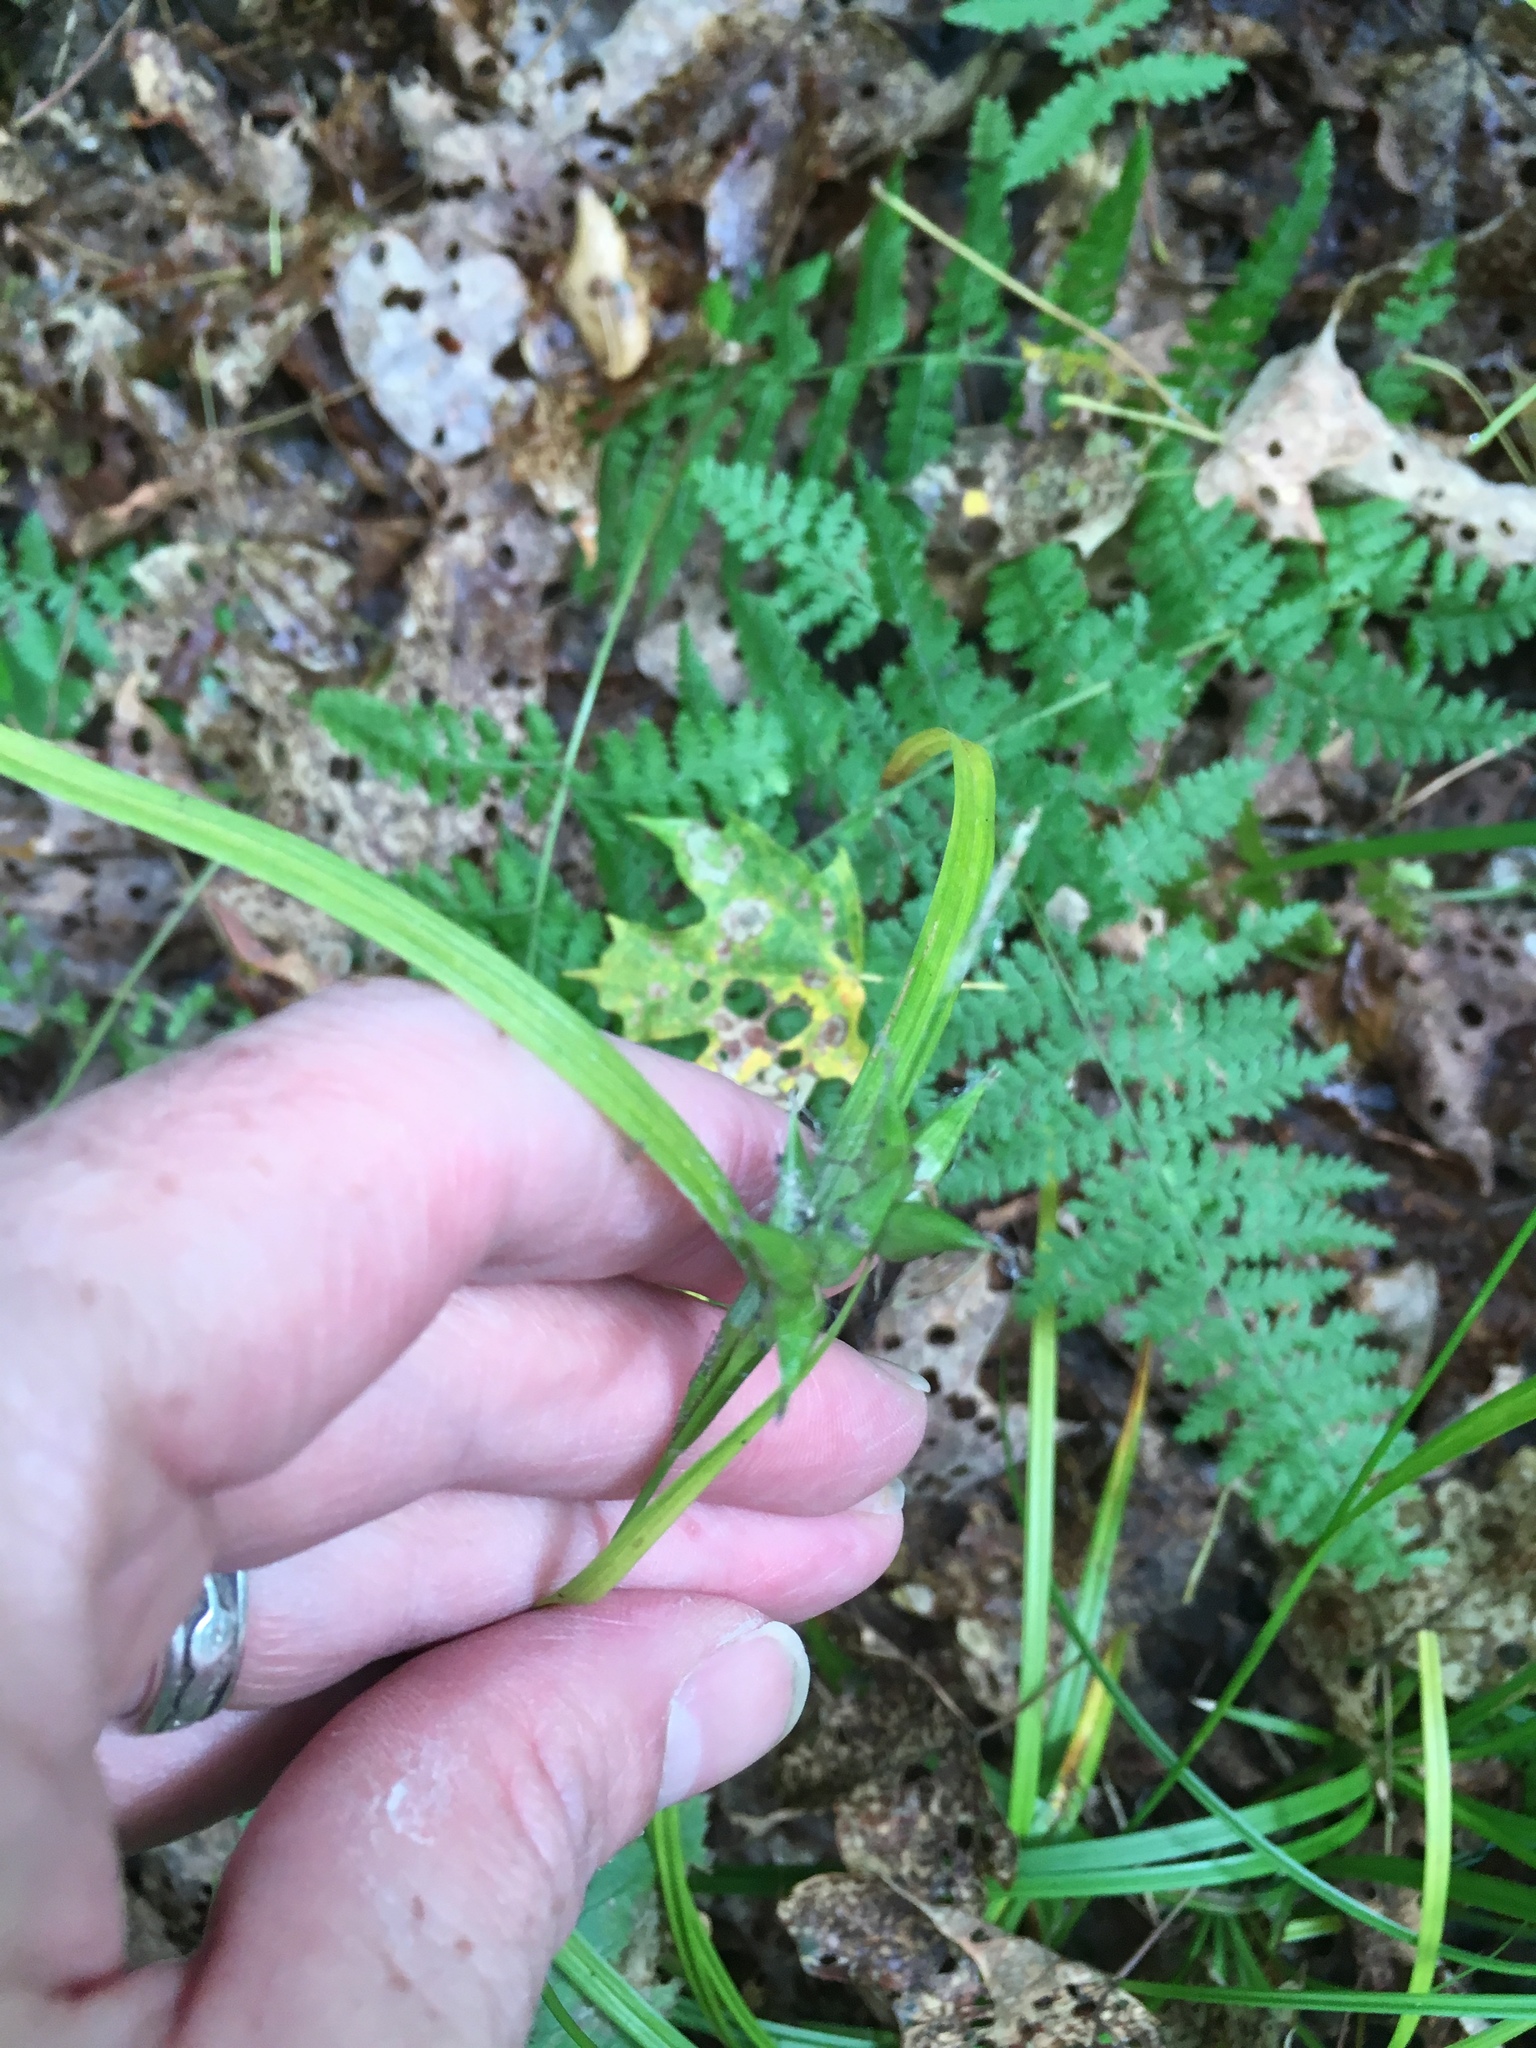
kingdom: Plantae
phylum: Tracheophyta
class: Liliopsida
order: Poales
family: Cyperaceae
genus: Carex
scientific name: Carex intumescens
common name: Greater bladder sedge
